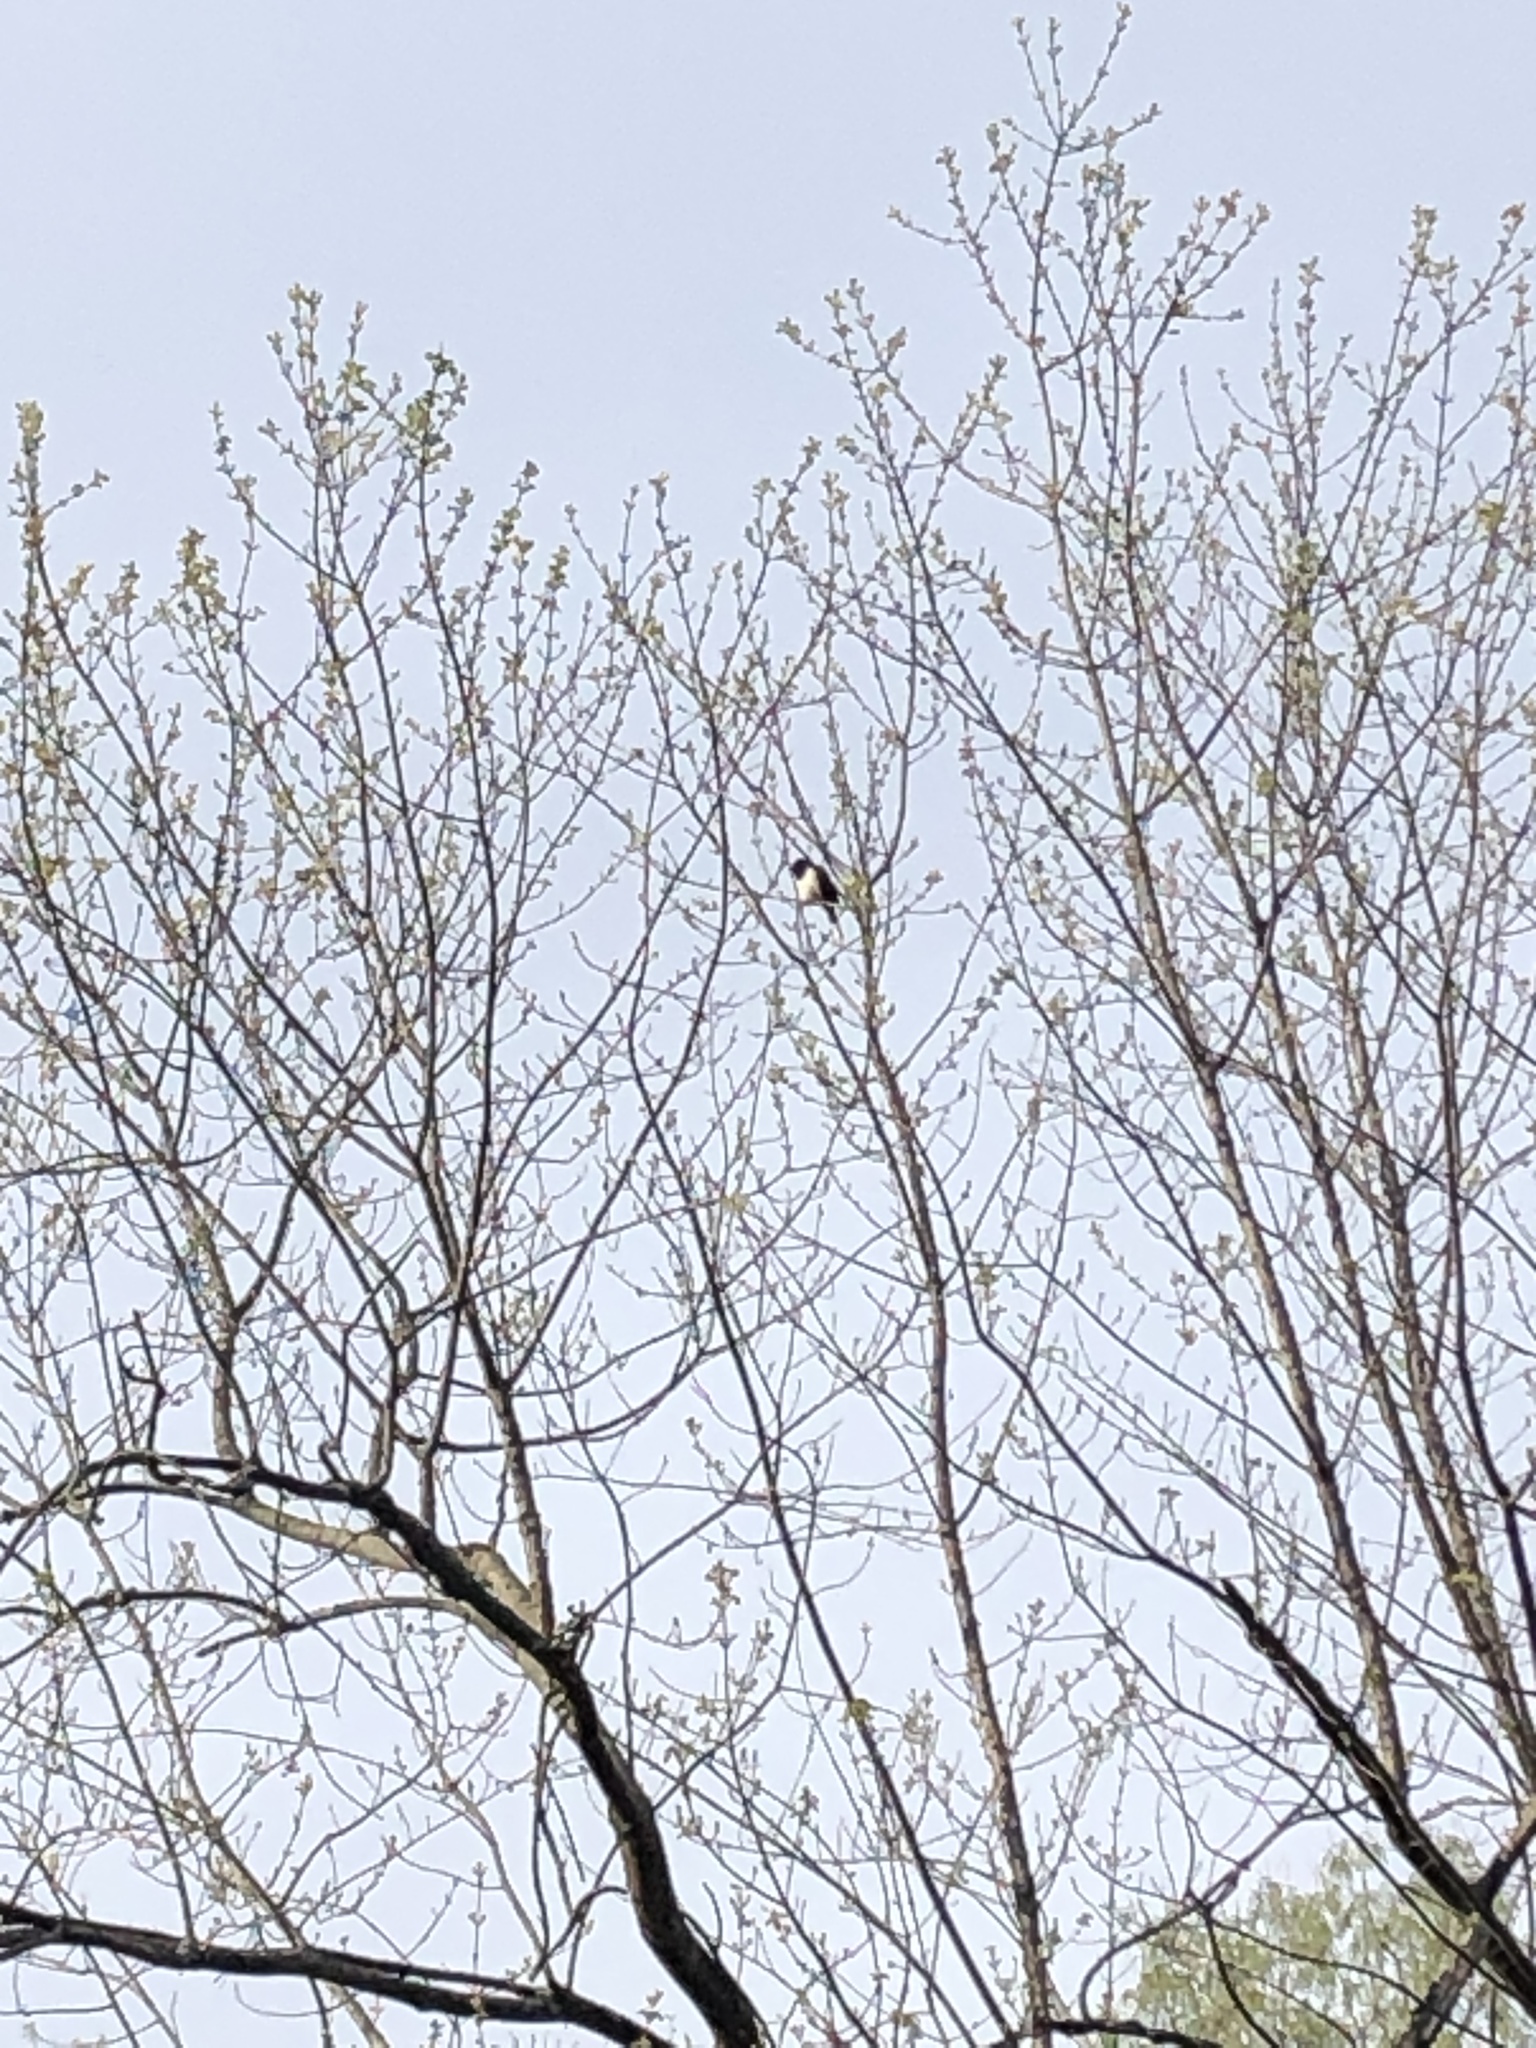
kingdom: Animalia
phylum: Chordata
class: Aves
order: Passeriformes
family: Passerellidae
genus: Pipilo
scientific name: Pipilo erythrophthalmus
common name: Eastern towhee
